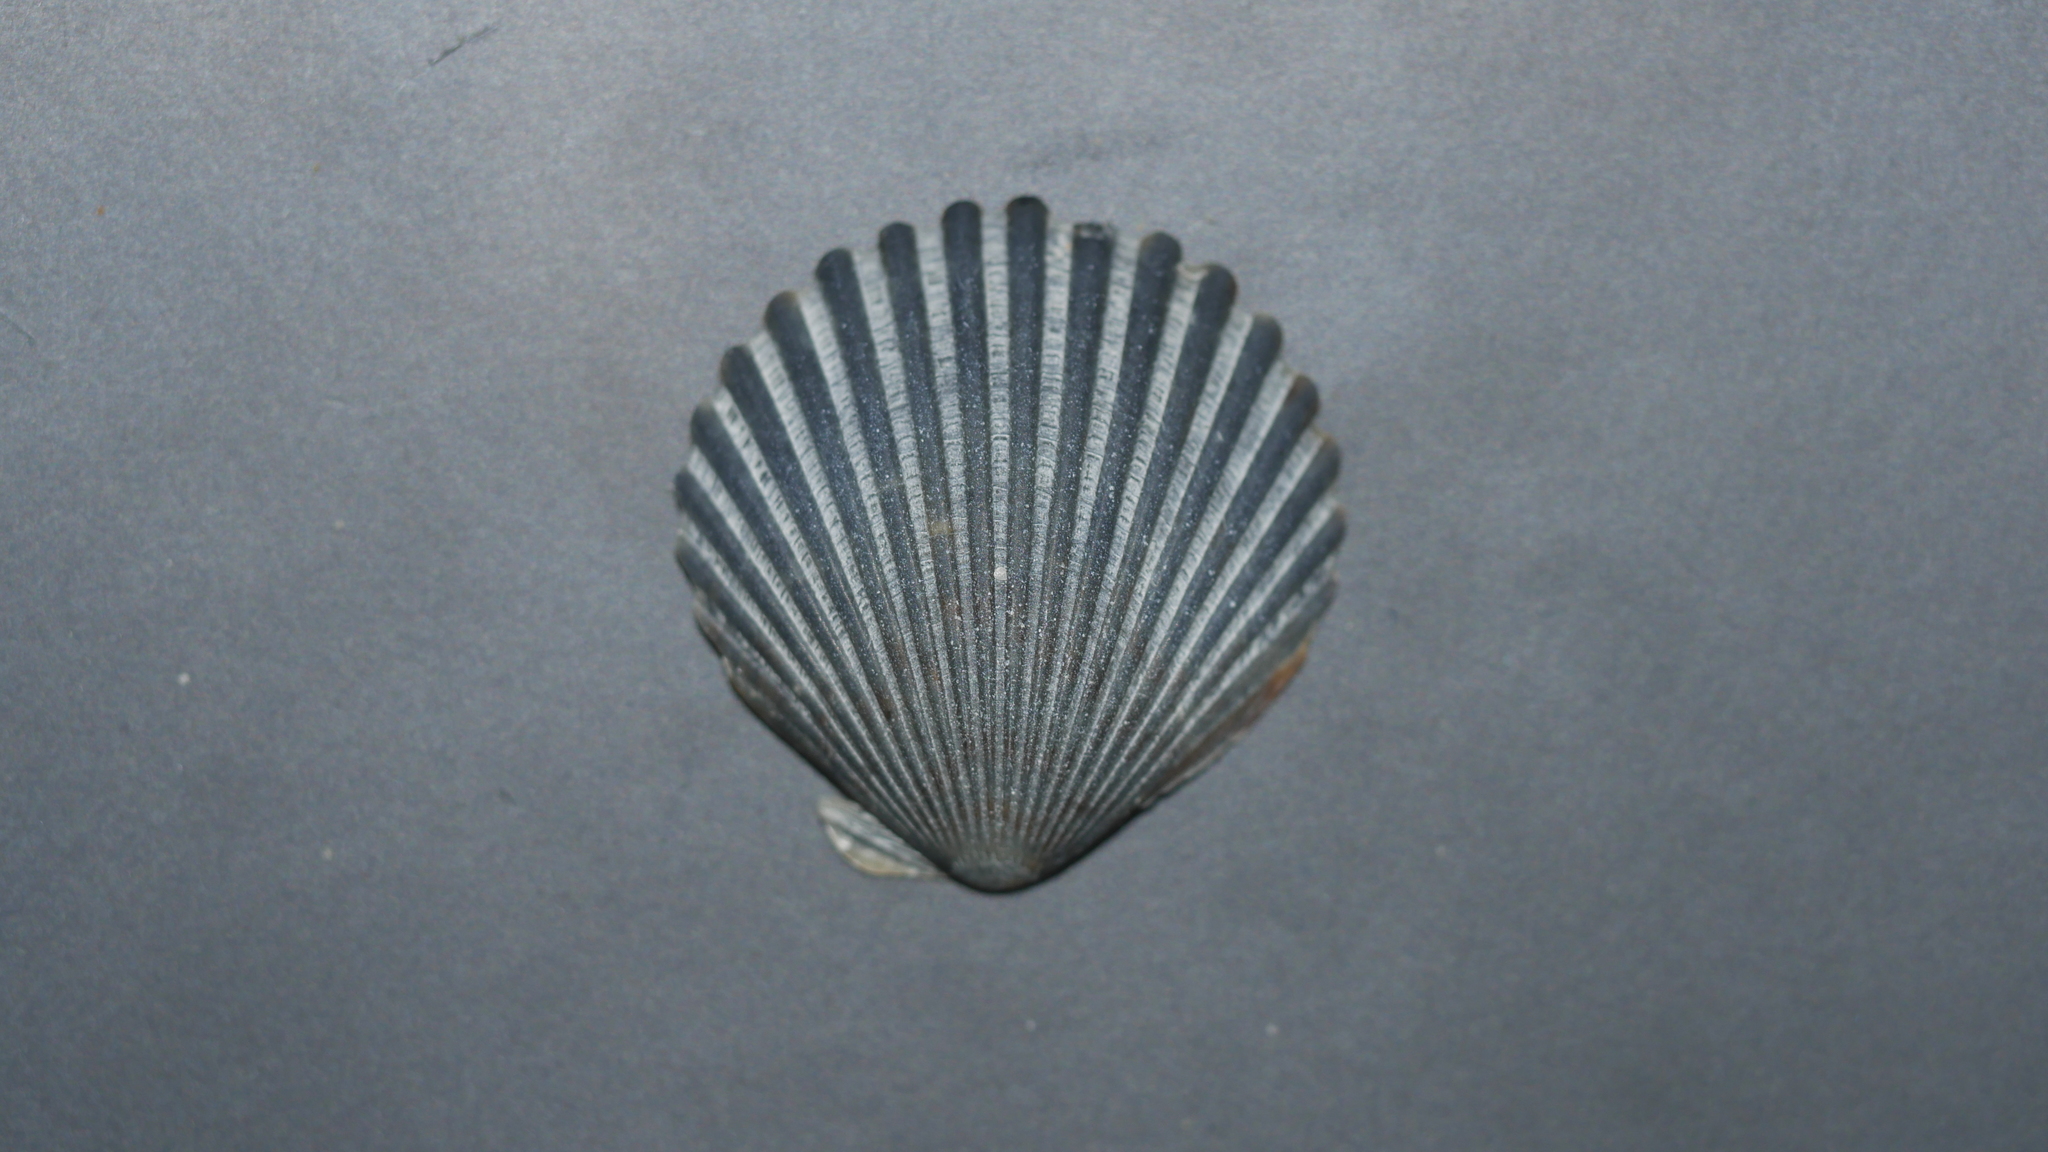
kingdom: Animalia
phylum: Mollusca
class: Bivalvia
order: Pectinida
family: Pectinidae
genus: Argopecten
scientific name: Argopecten irradians
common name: Atlantic bay scallop
